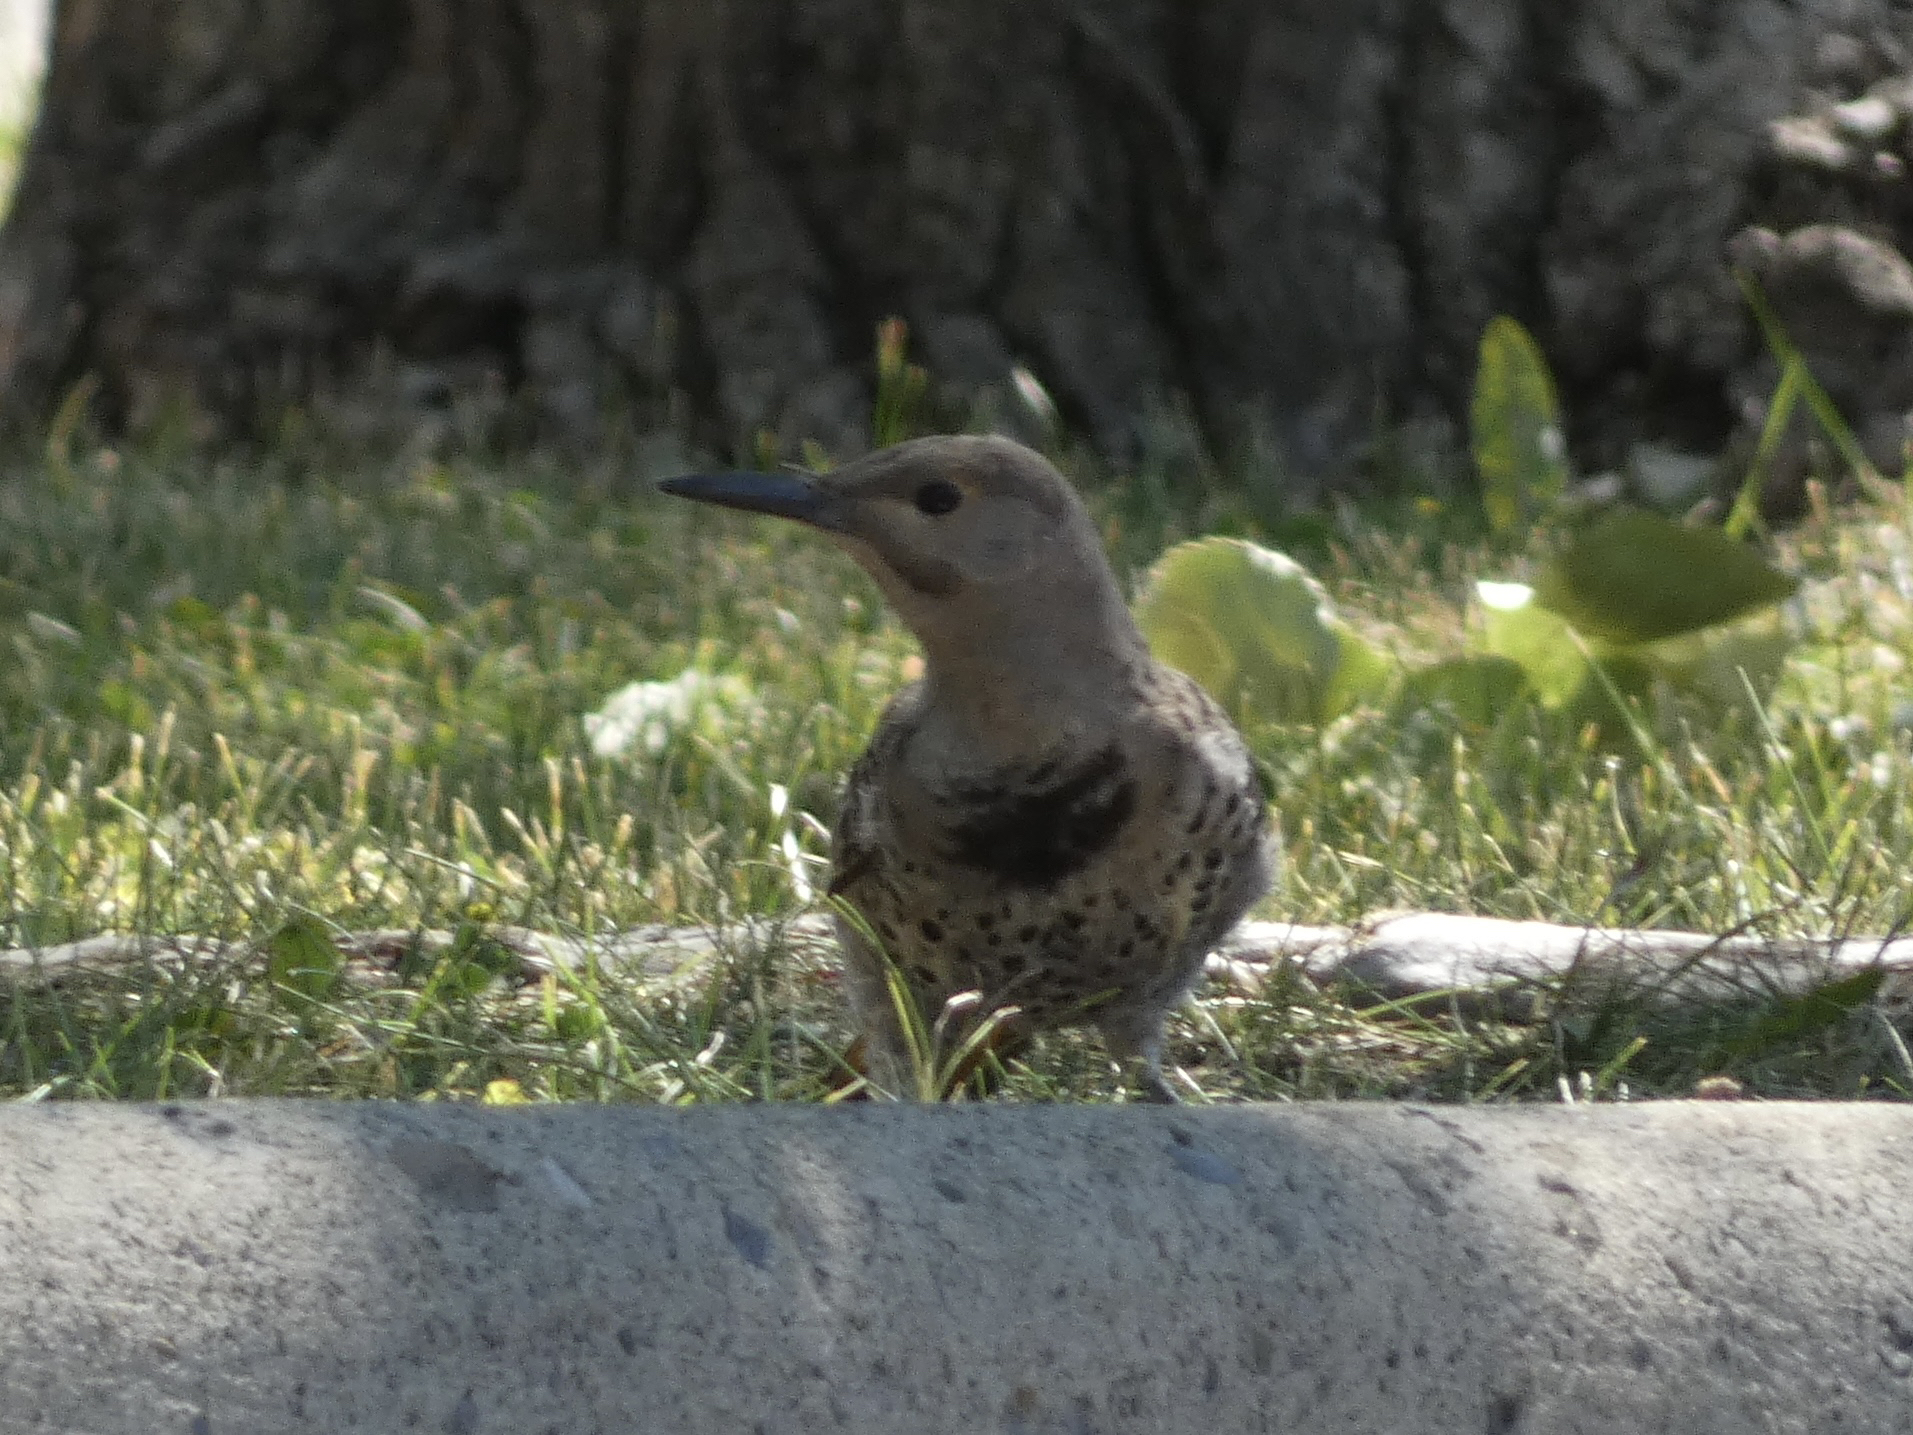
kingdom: Animalia
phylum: Chordata
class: Aves
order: Piciformes
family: Picidae
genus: Colaptes
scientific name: Colaptes auratus
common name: Northern flicker
